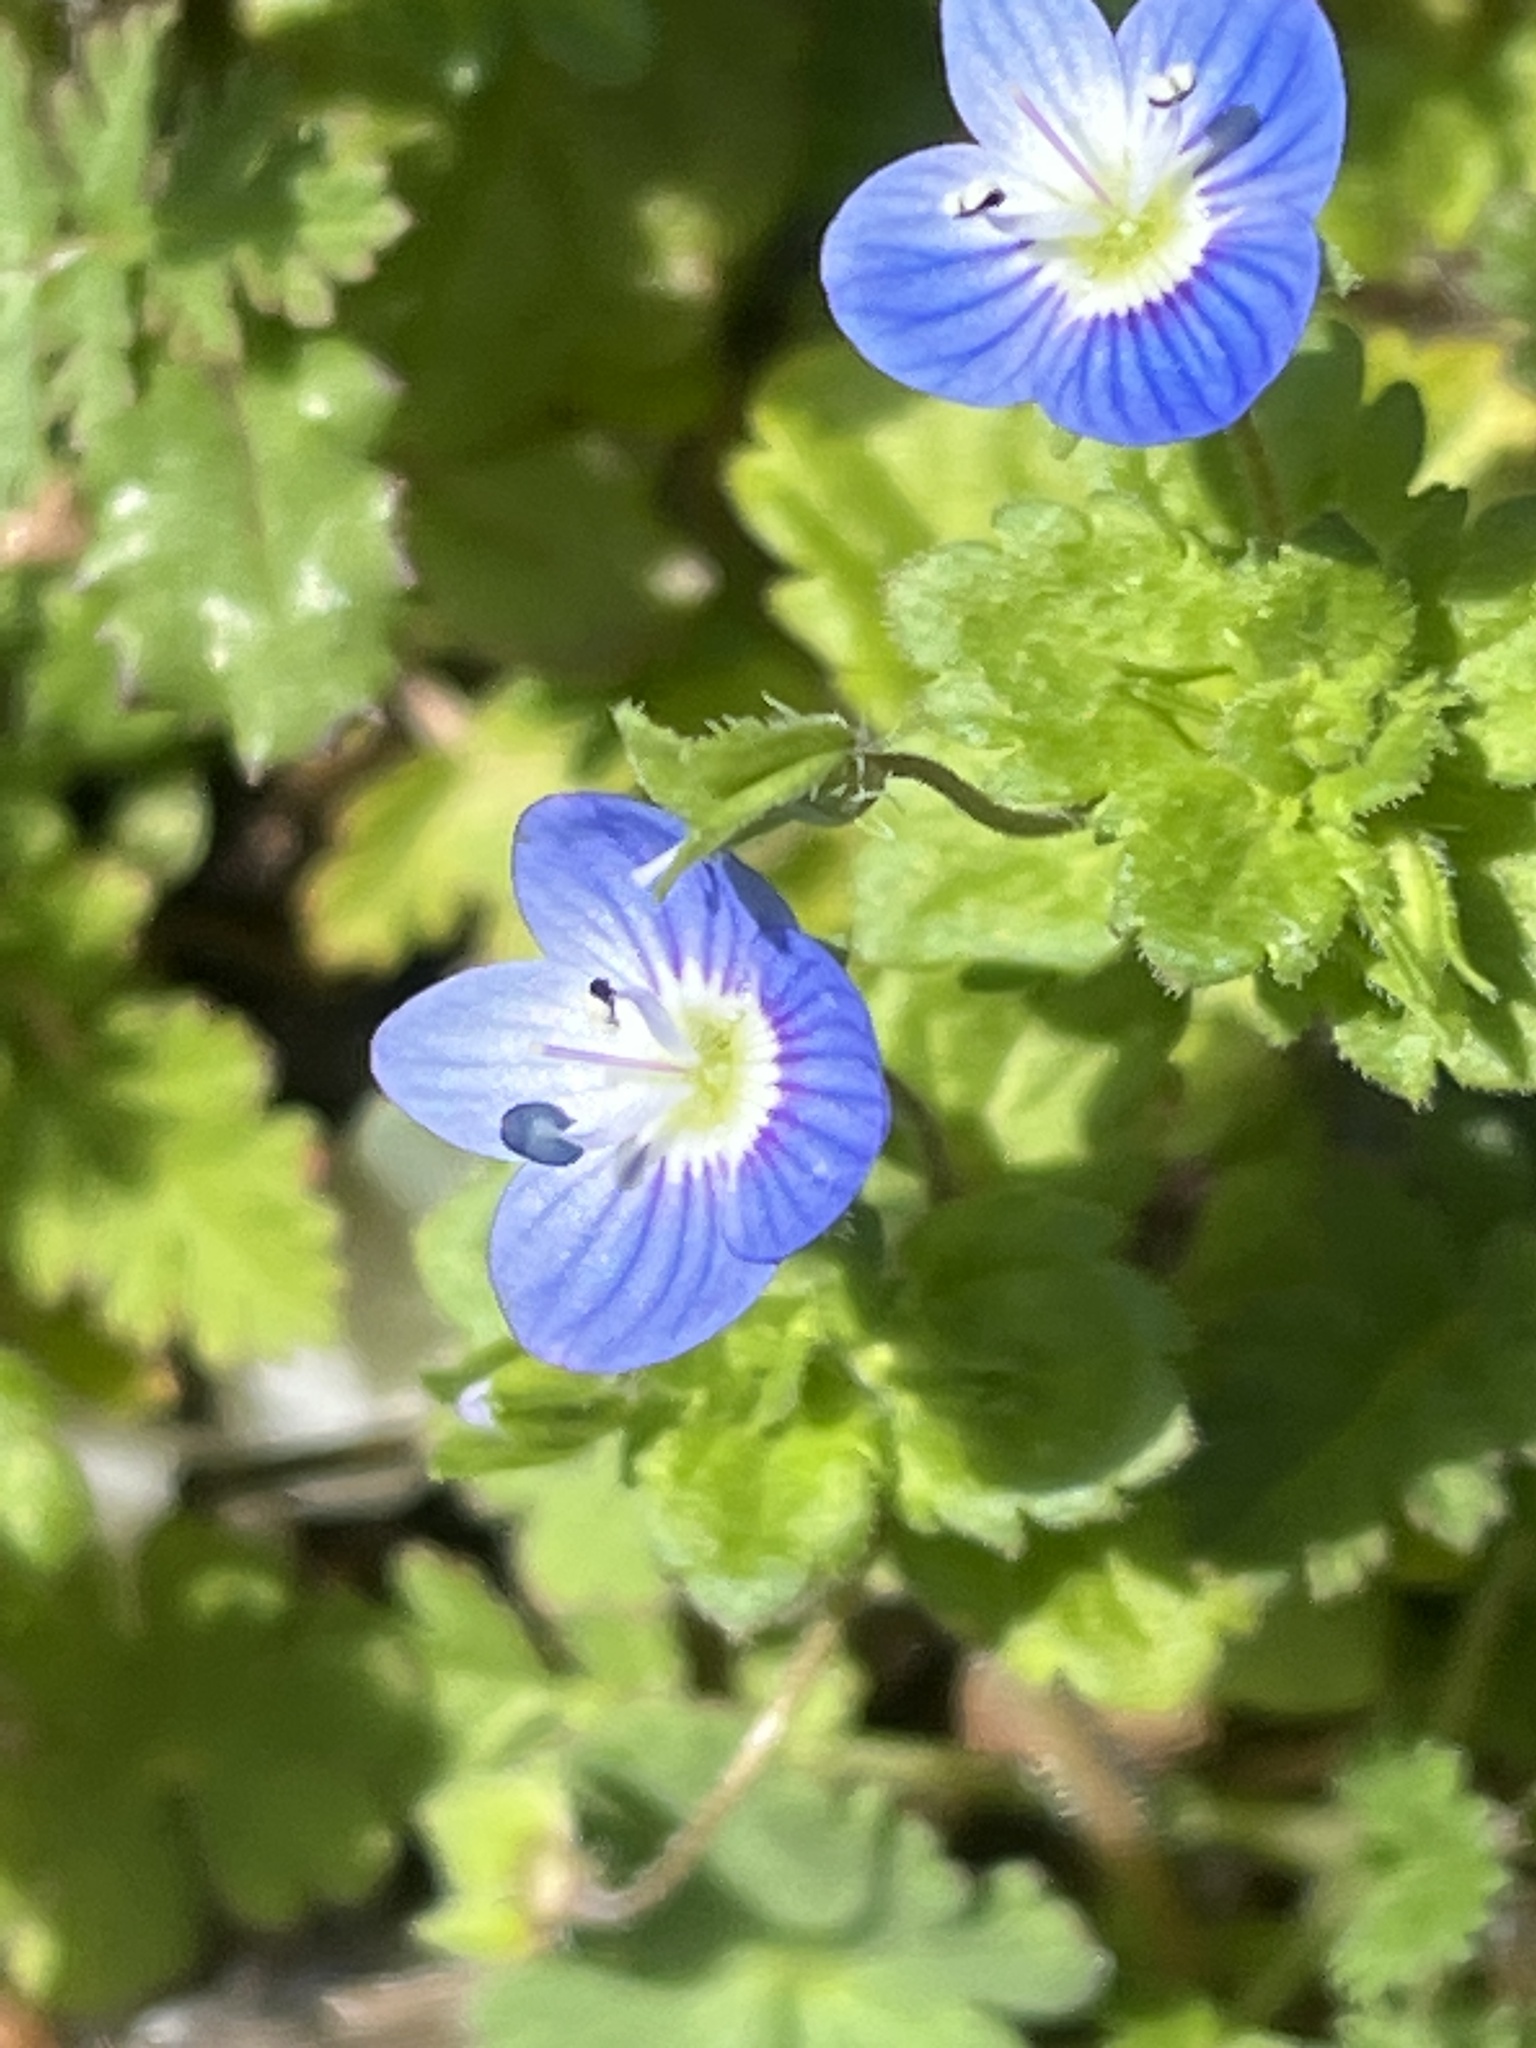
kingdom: Plantae
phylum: Tracheophyta
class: Magnoliopsida
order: Lamiales
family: Plantaginaceae
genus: Veronica
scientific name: Veronica persica
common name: Common field-speedwell
